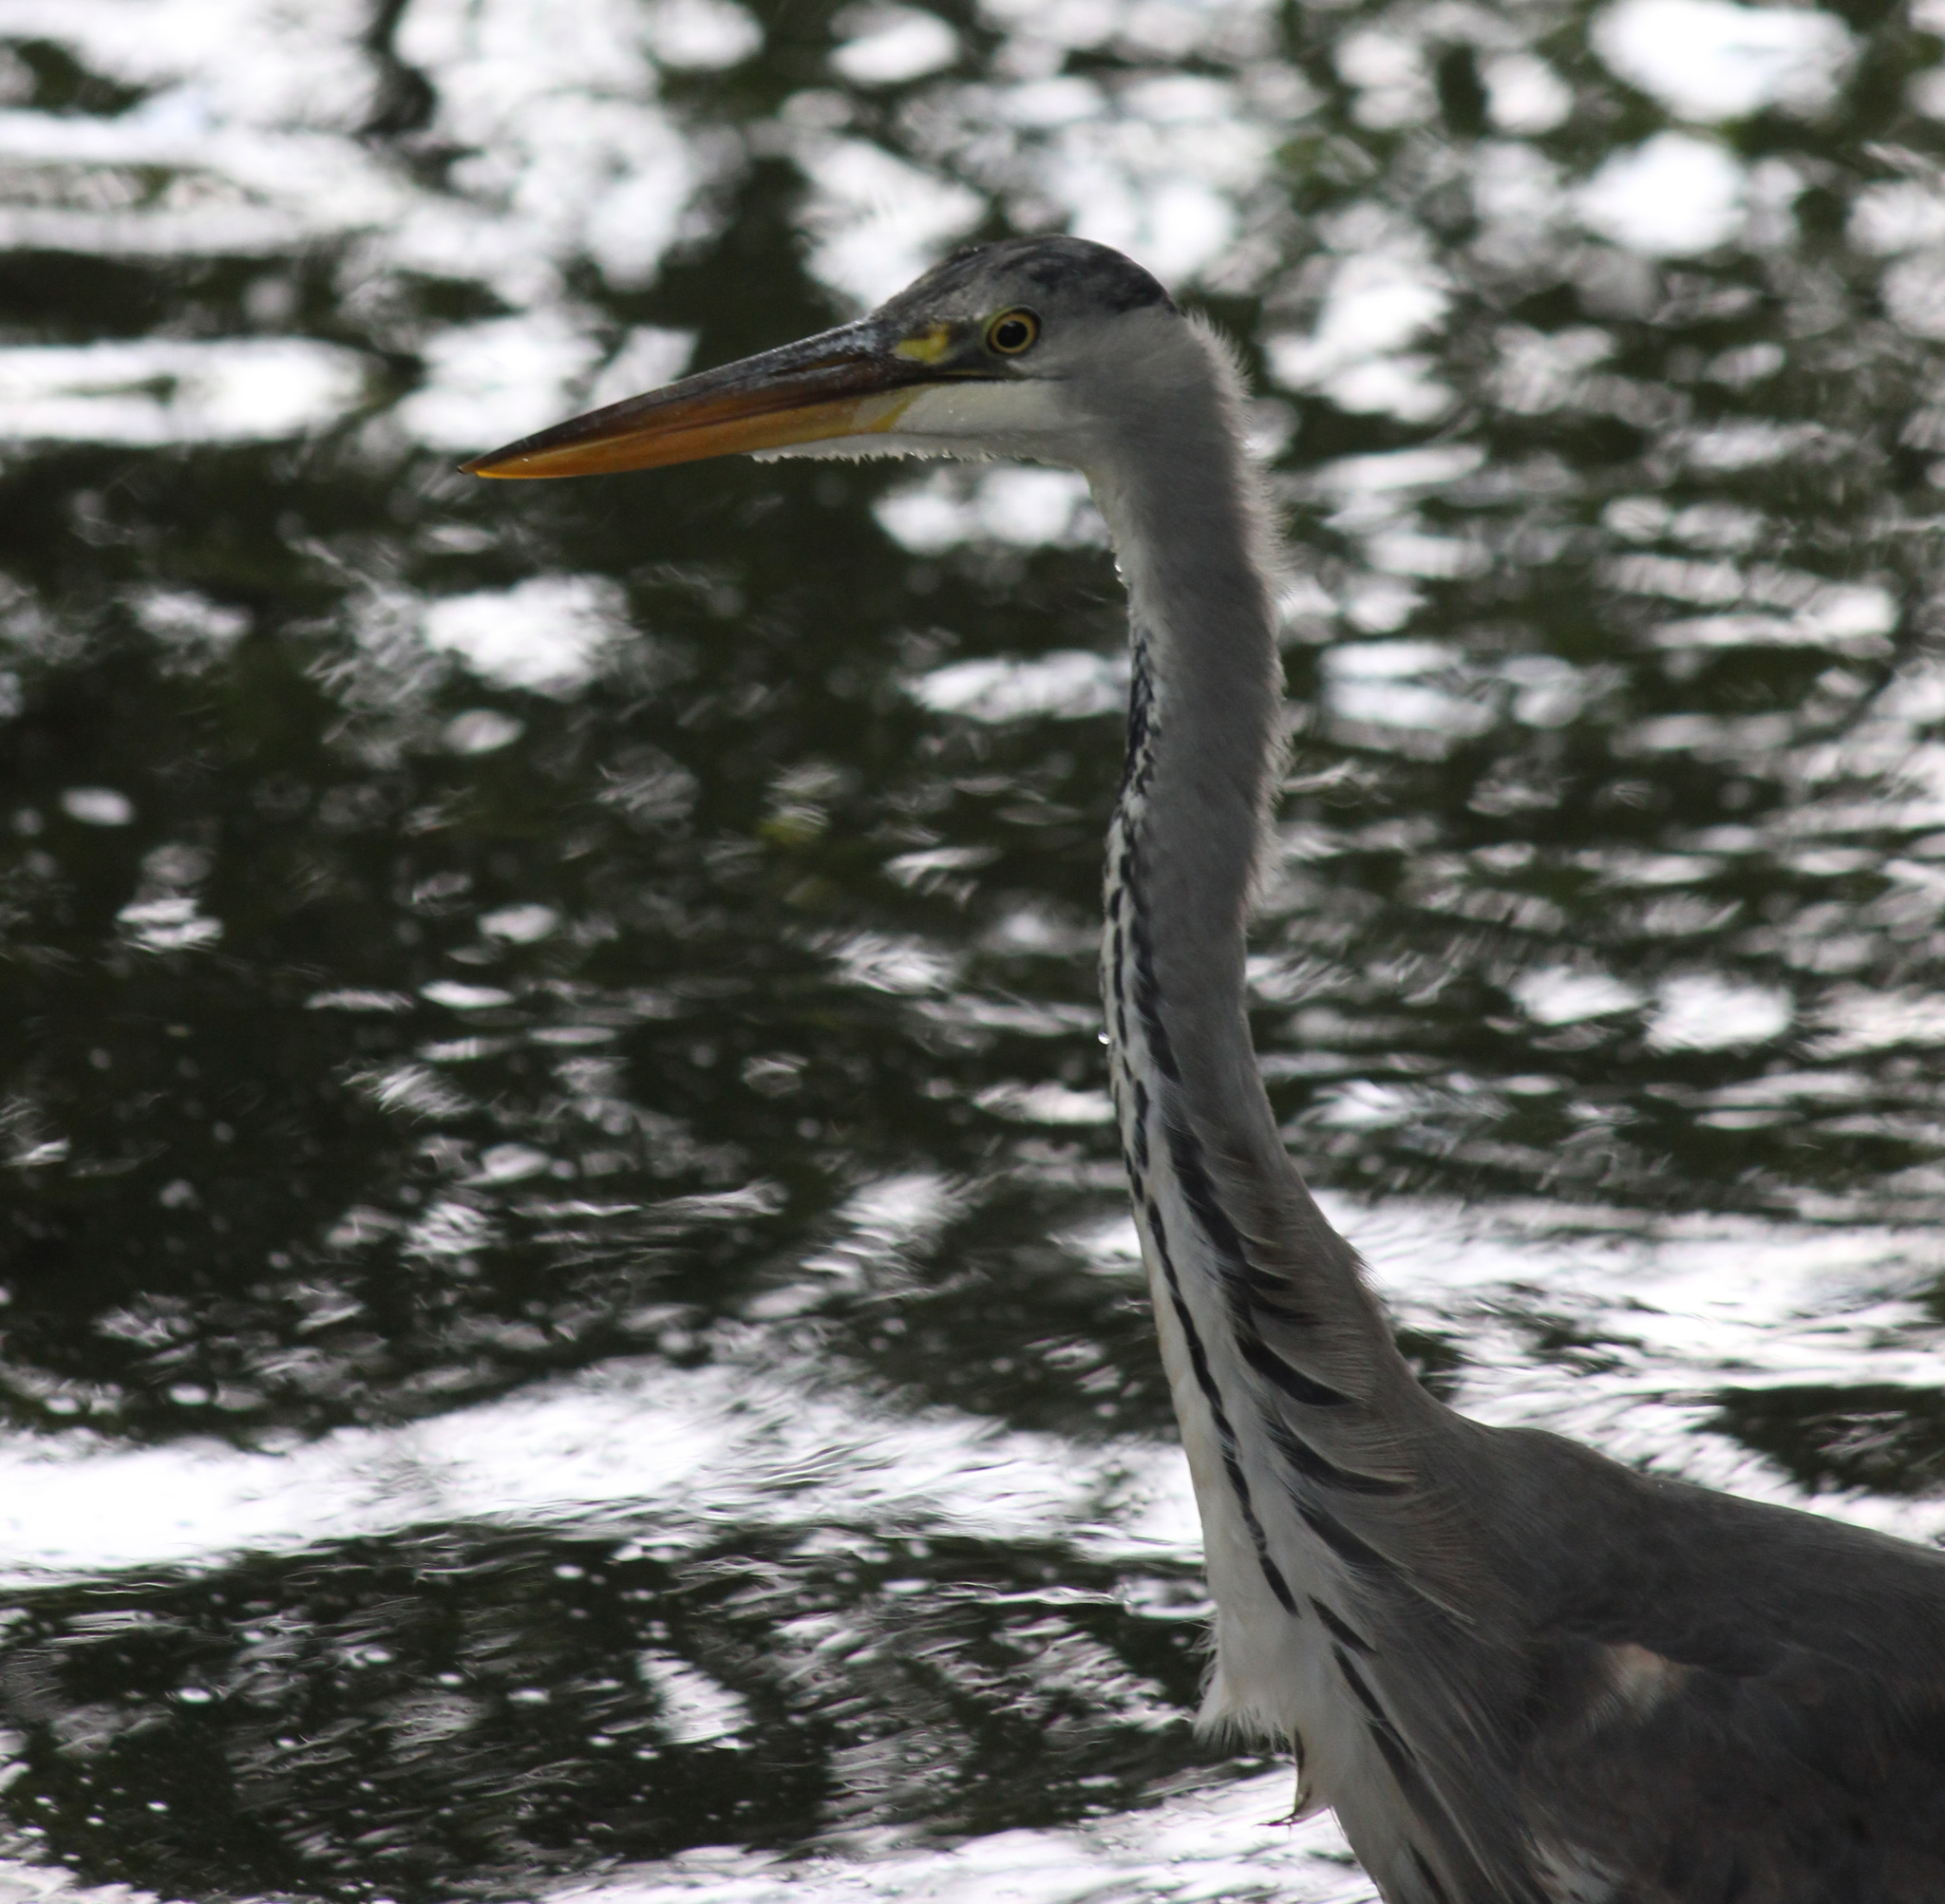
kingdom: Animalia
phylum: Chordata
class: Aves
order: Pelecaniformes
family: Ardeidae
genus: Ardea
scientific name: Ardea cinerea
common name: Grey heron
